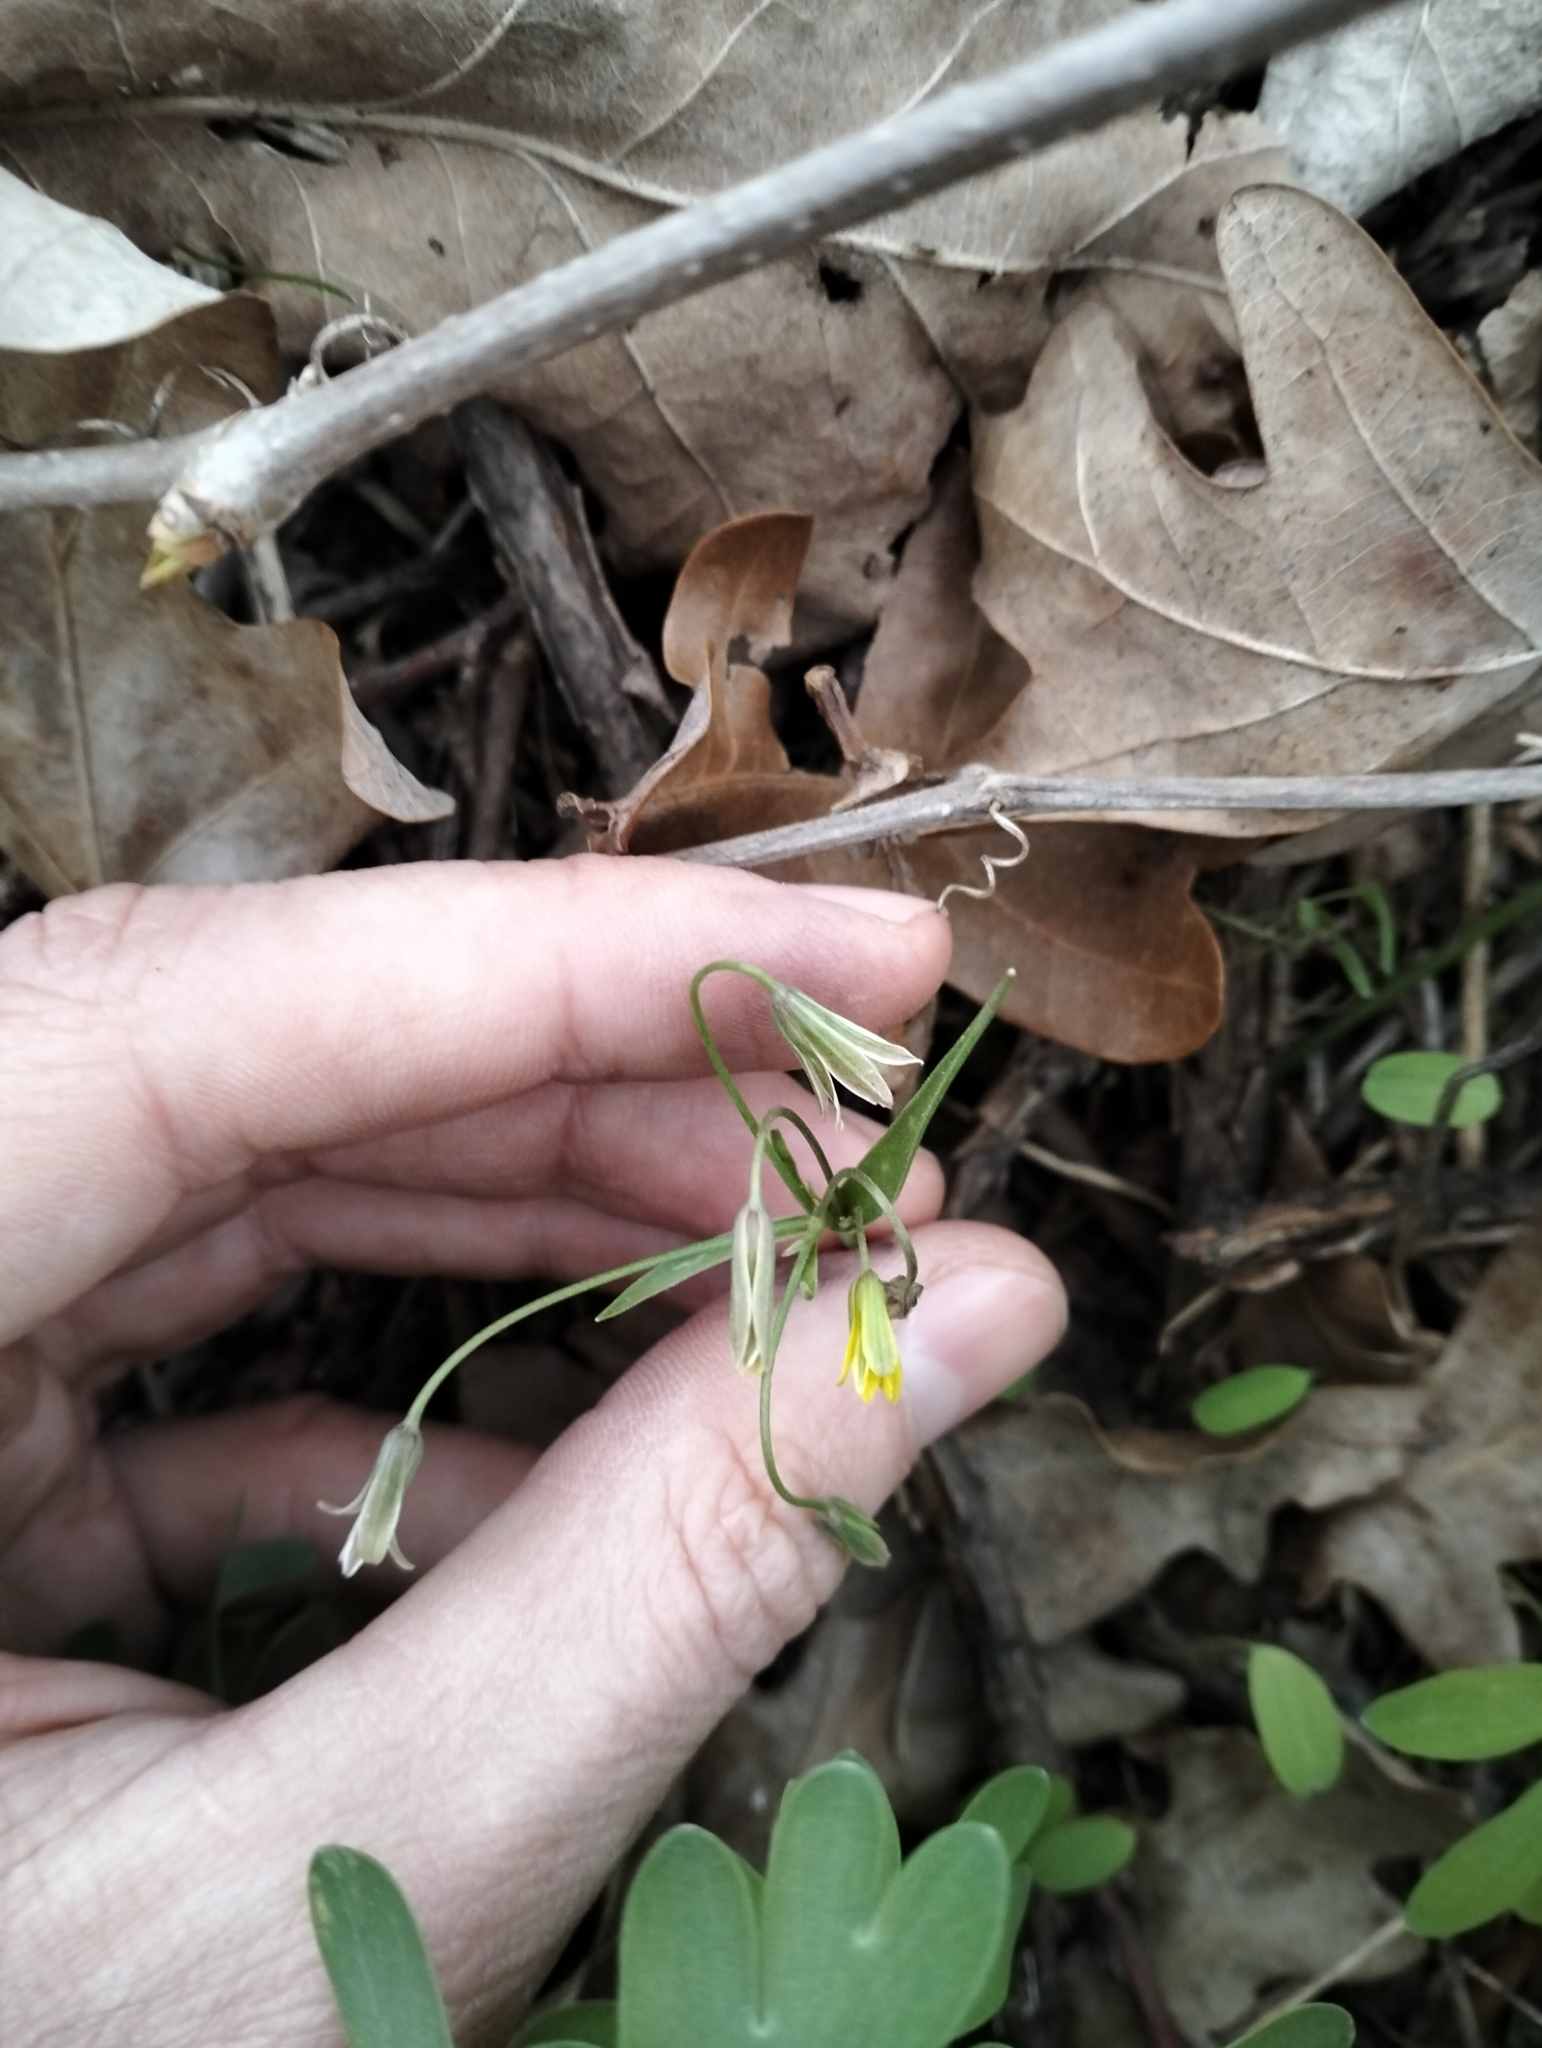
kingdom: Plantae
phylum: Tracheophyta
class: Liliopsida
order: Liliales
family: Liliaceae
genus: Gagea
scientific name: Gagea fragifera
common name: Lily
